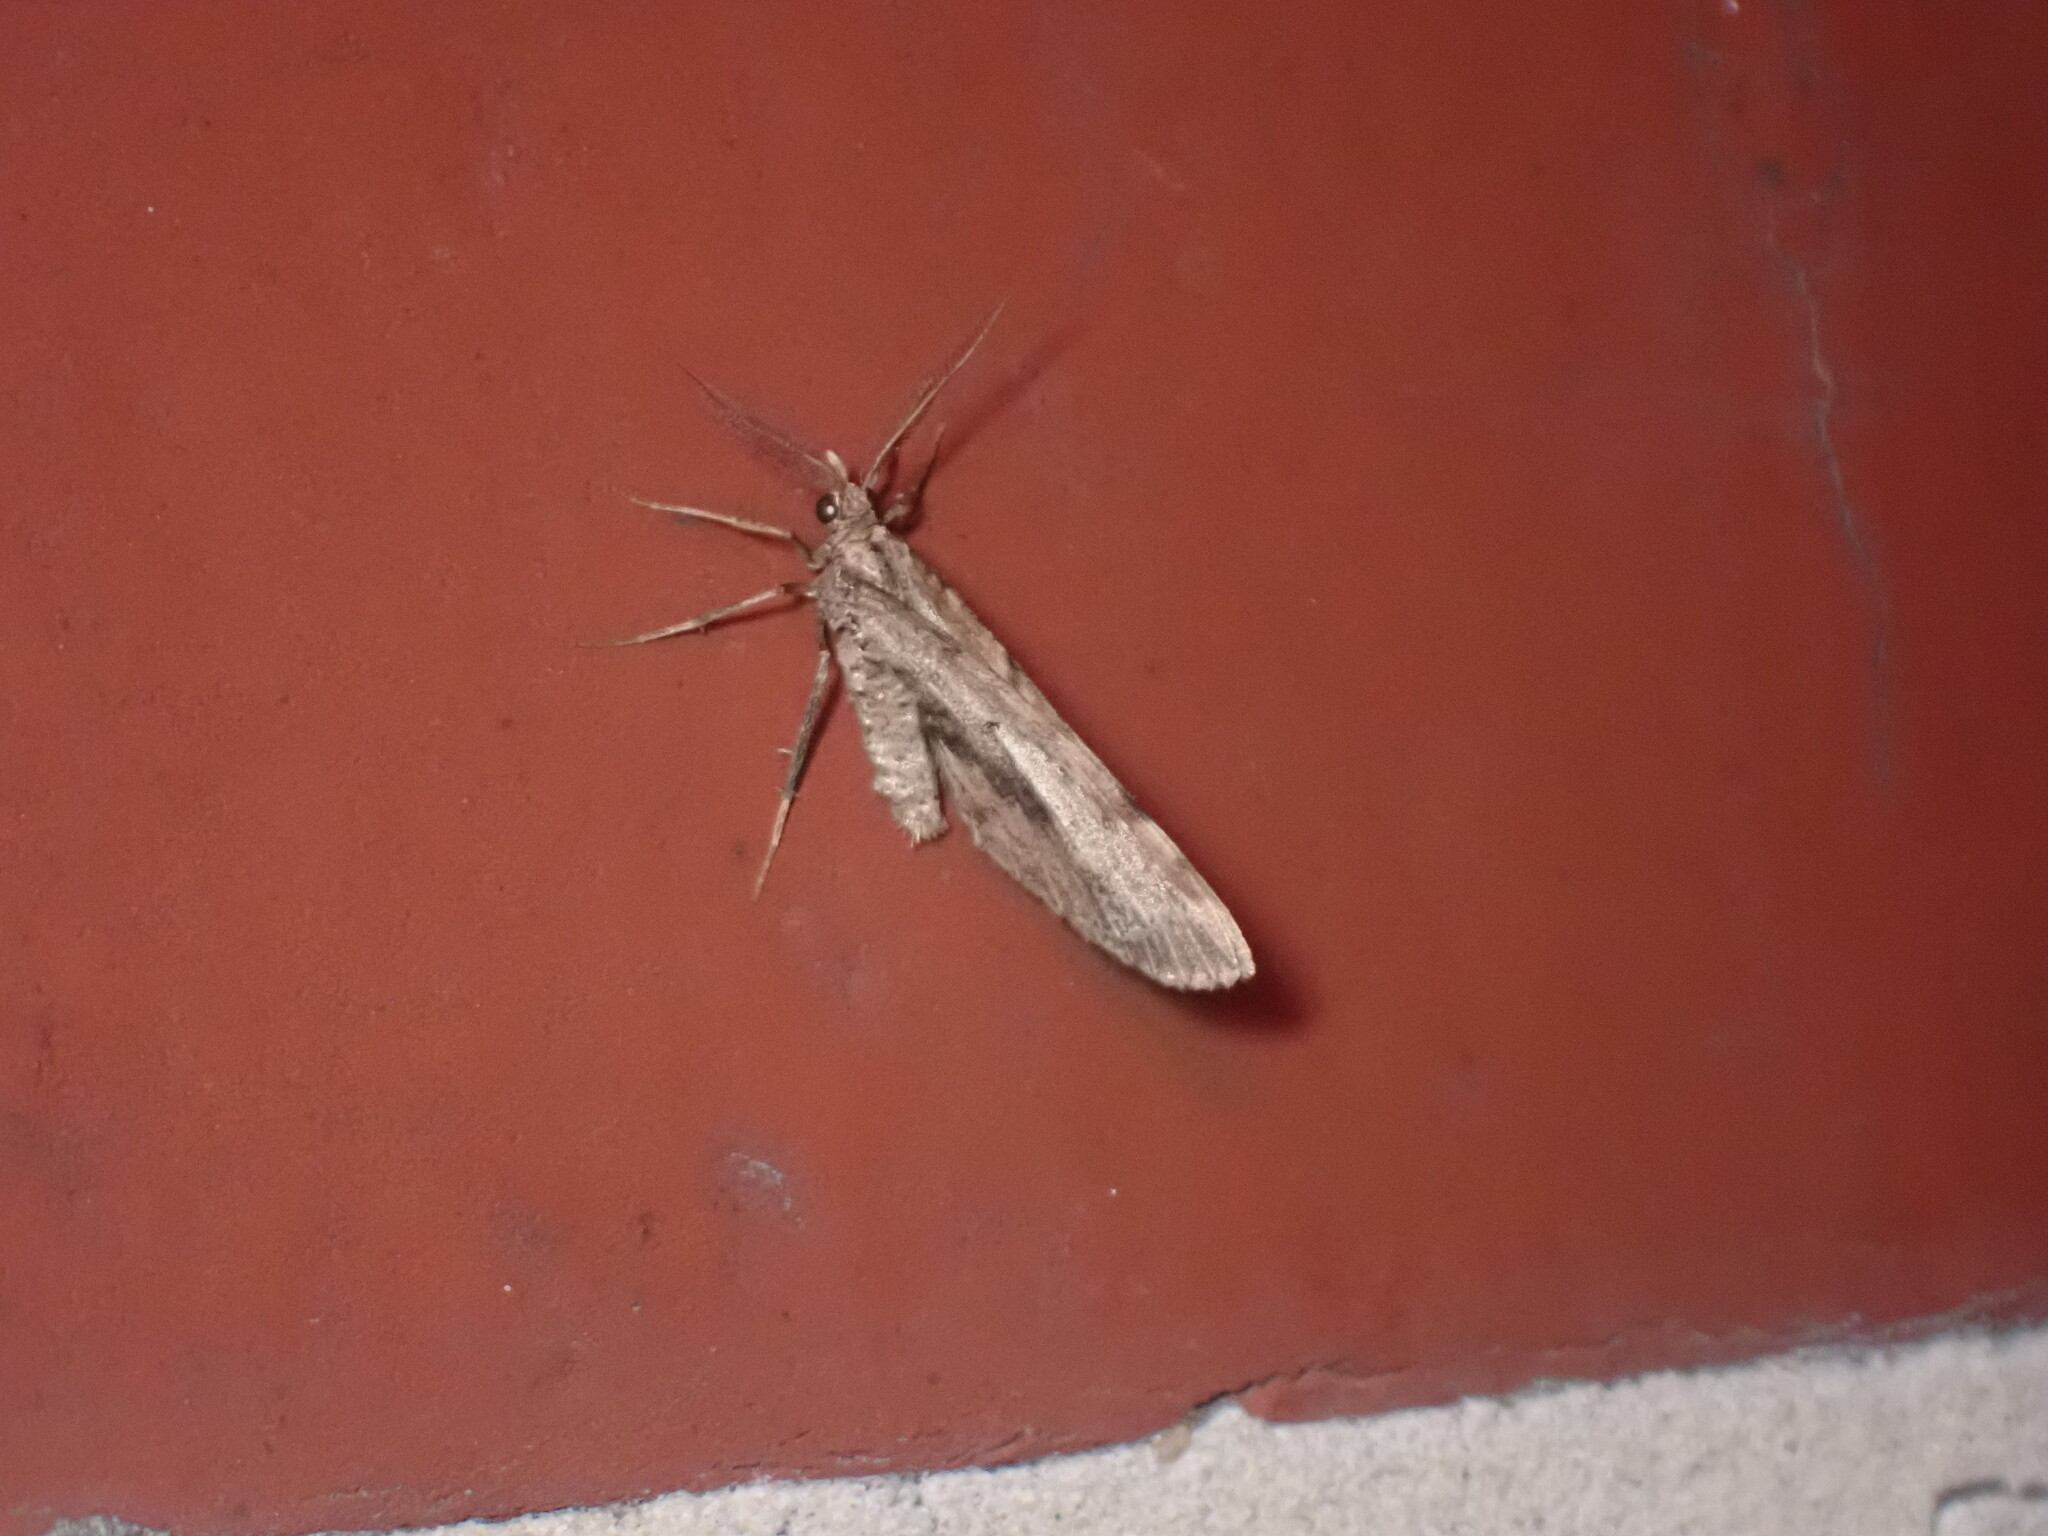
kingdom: Animalia
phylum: Arthropoda
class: Insecta
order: Lepidoptera
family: Geometridae
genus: Asaphodes
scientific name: Asaphodes aegrota
